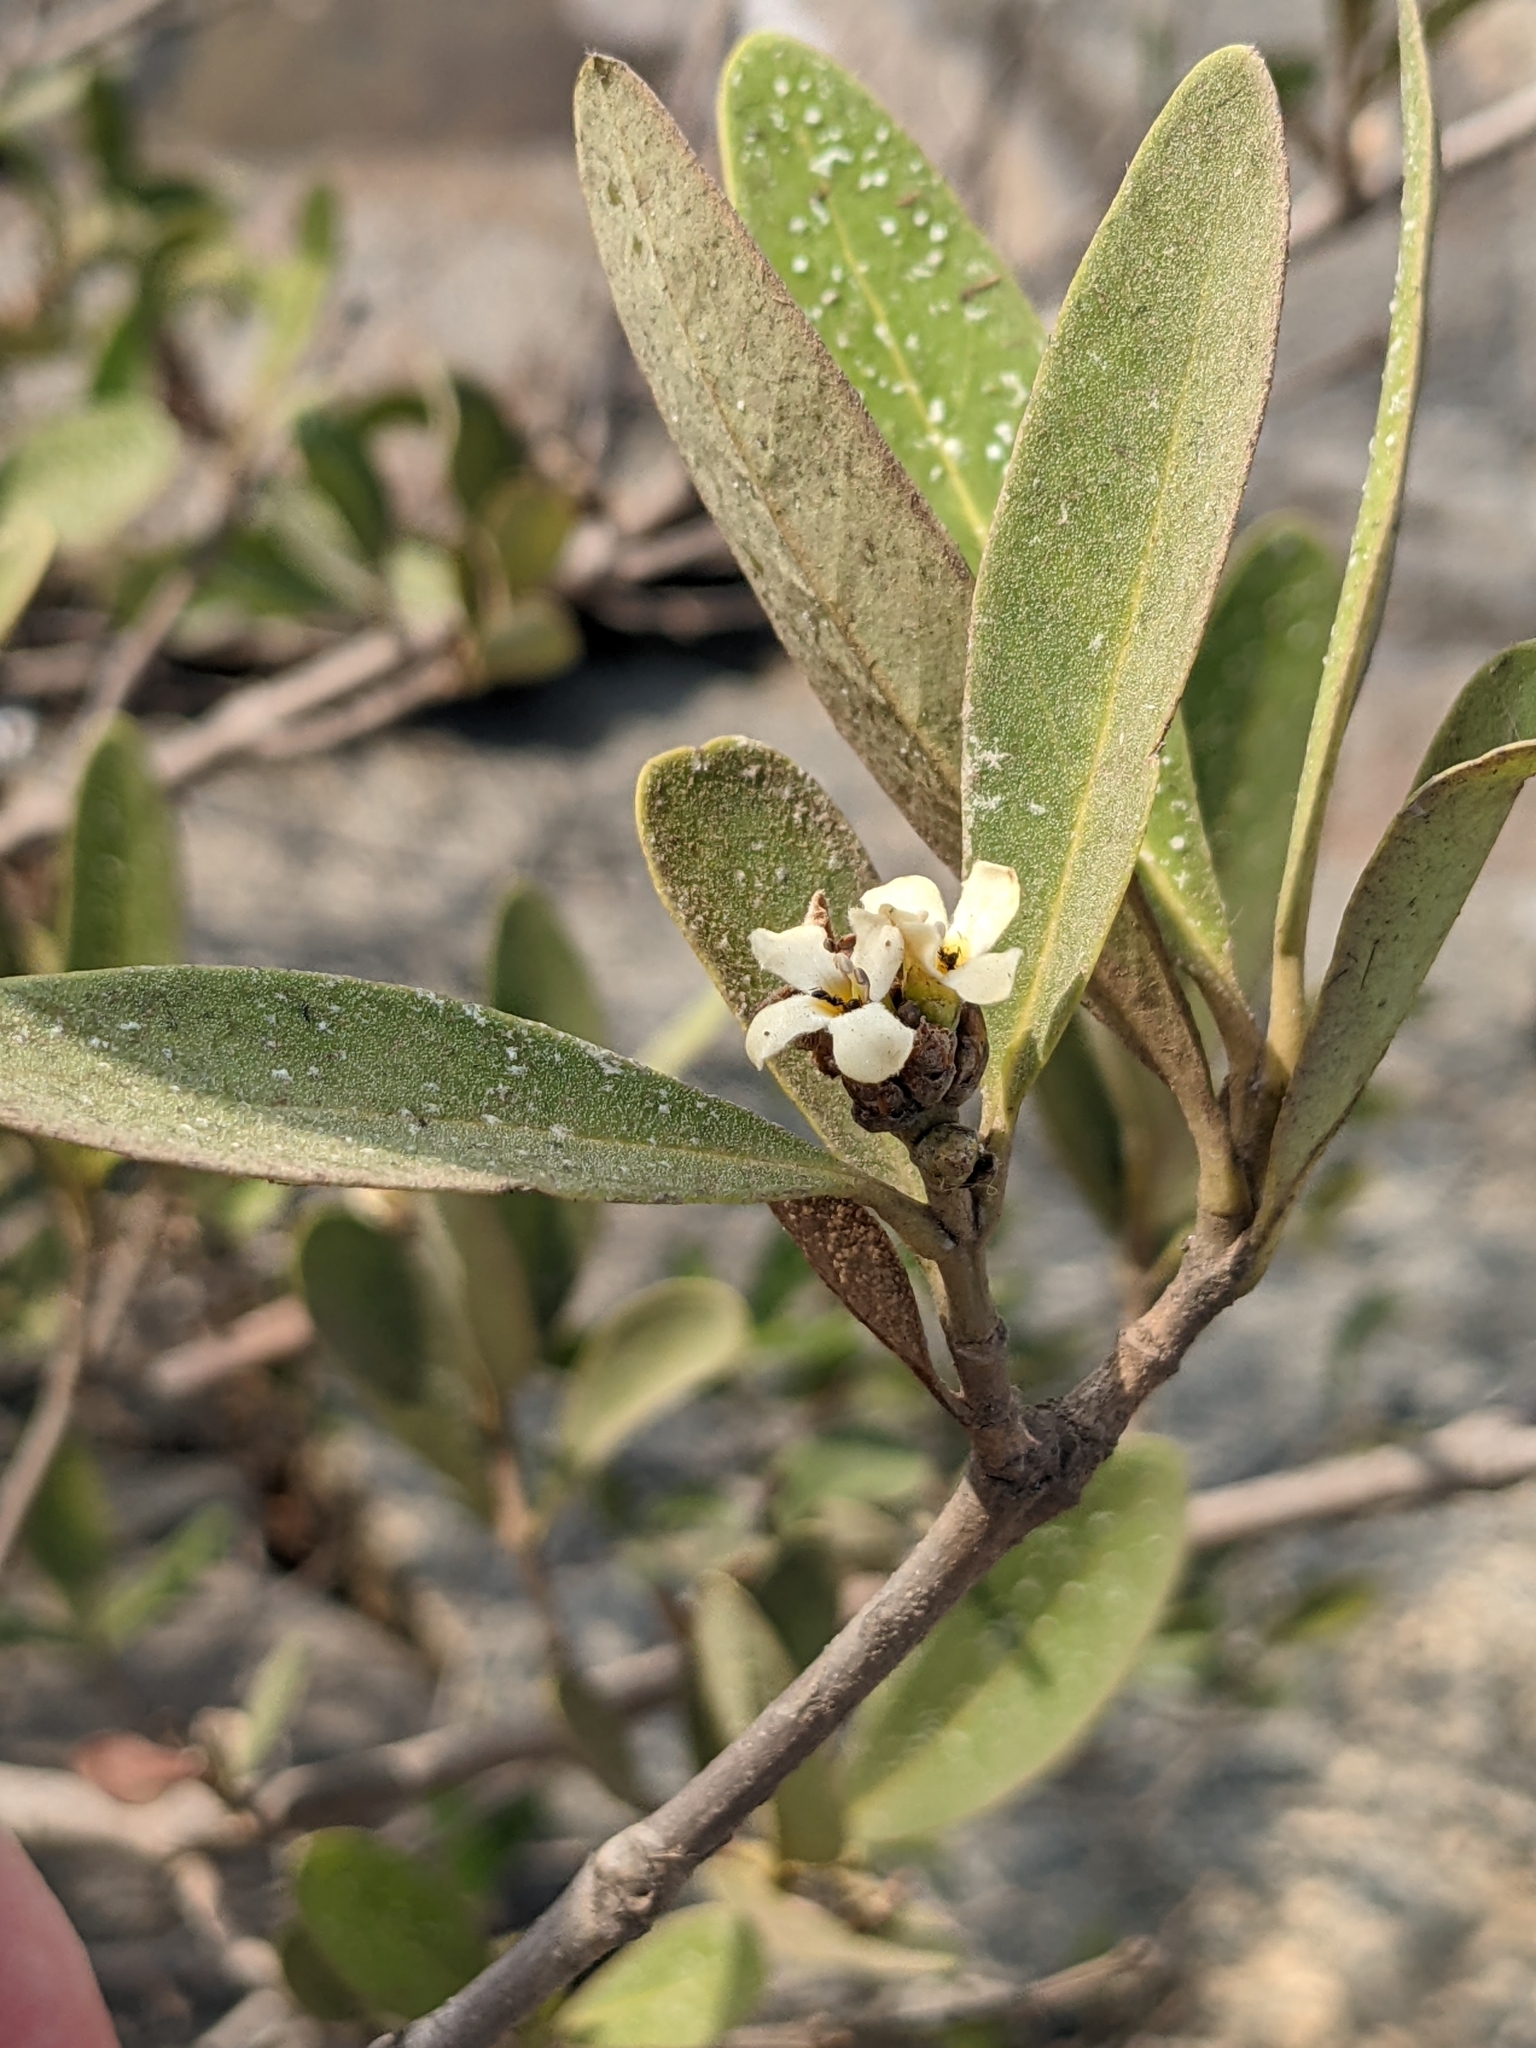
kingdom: Plantae
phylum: Tracheophyta
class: Magnoliopsida
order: Lamiales
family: Acanthaceae
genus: Avicennia
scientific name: Avicennia germinans
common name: Black mangrove
